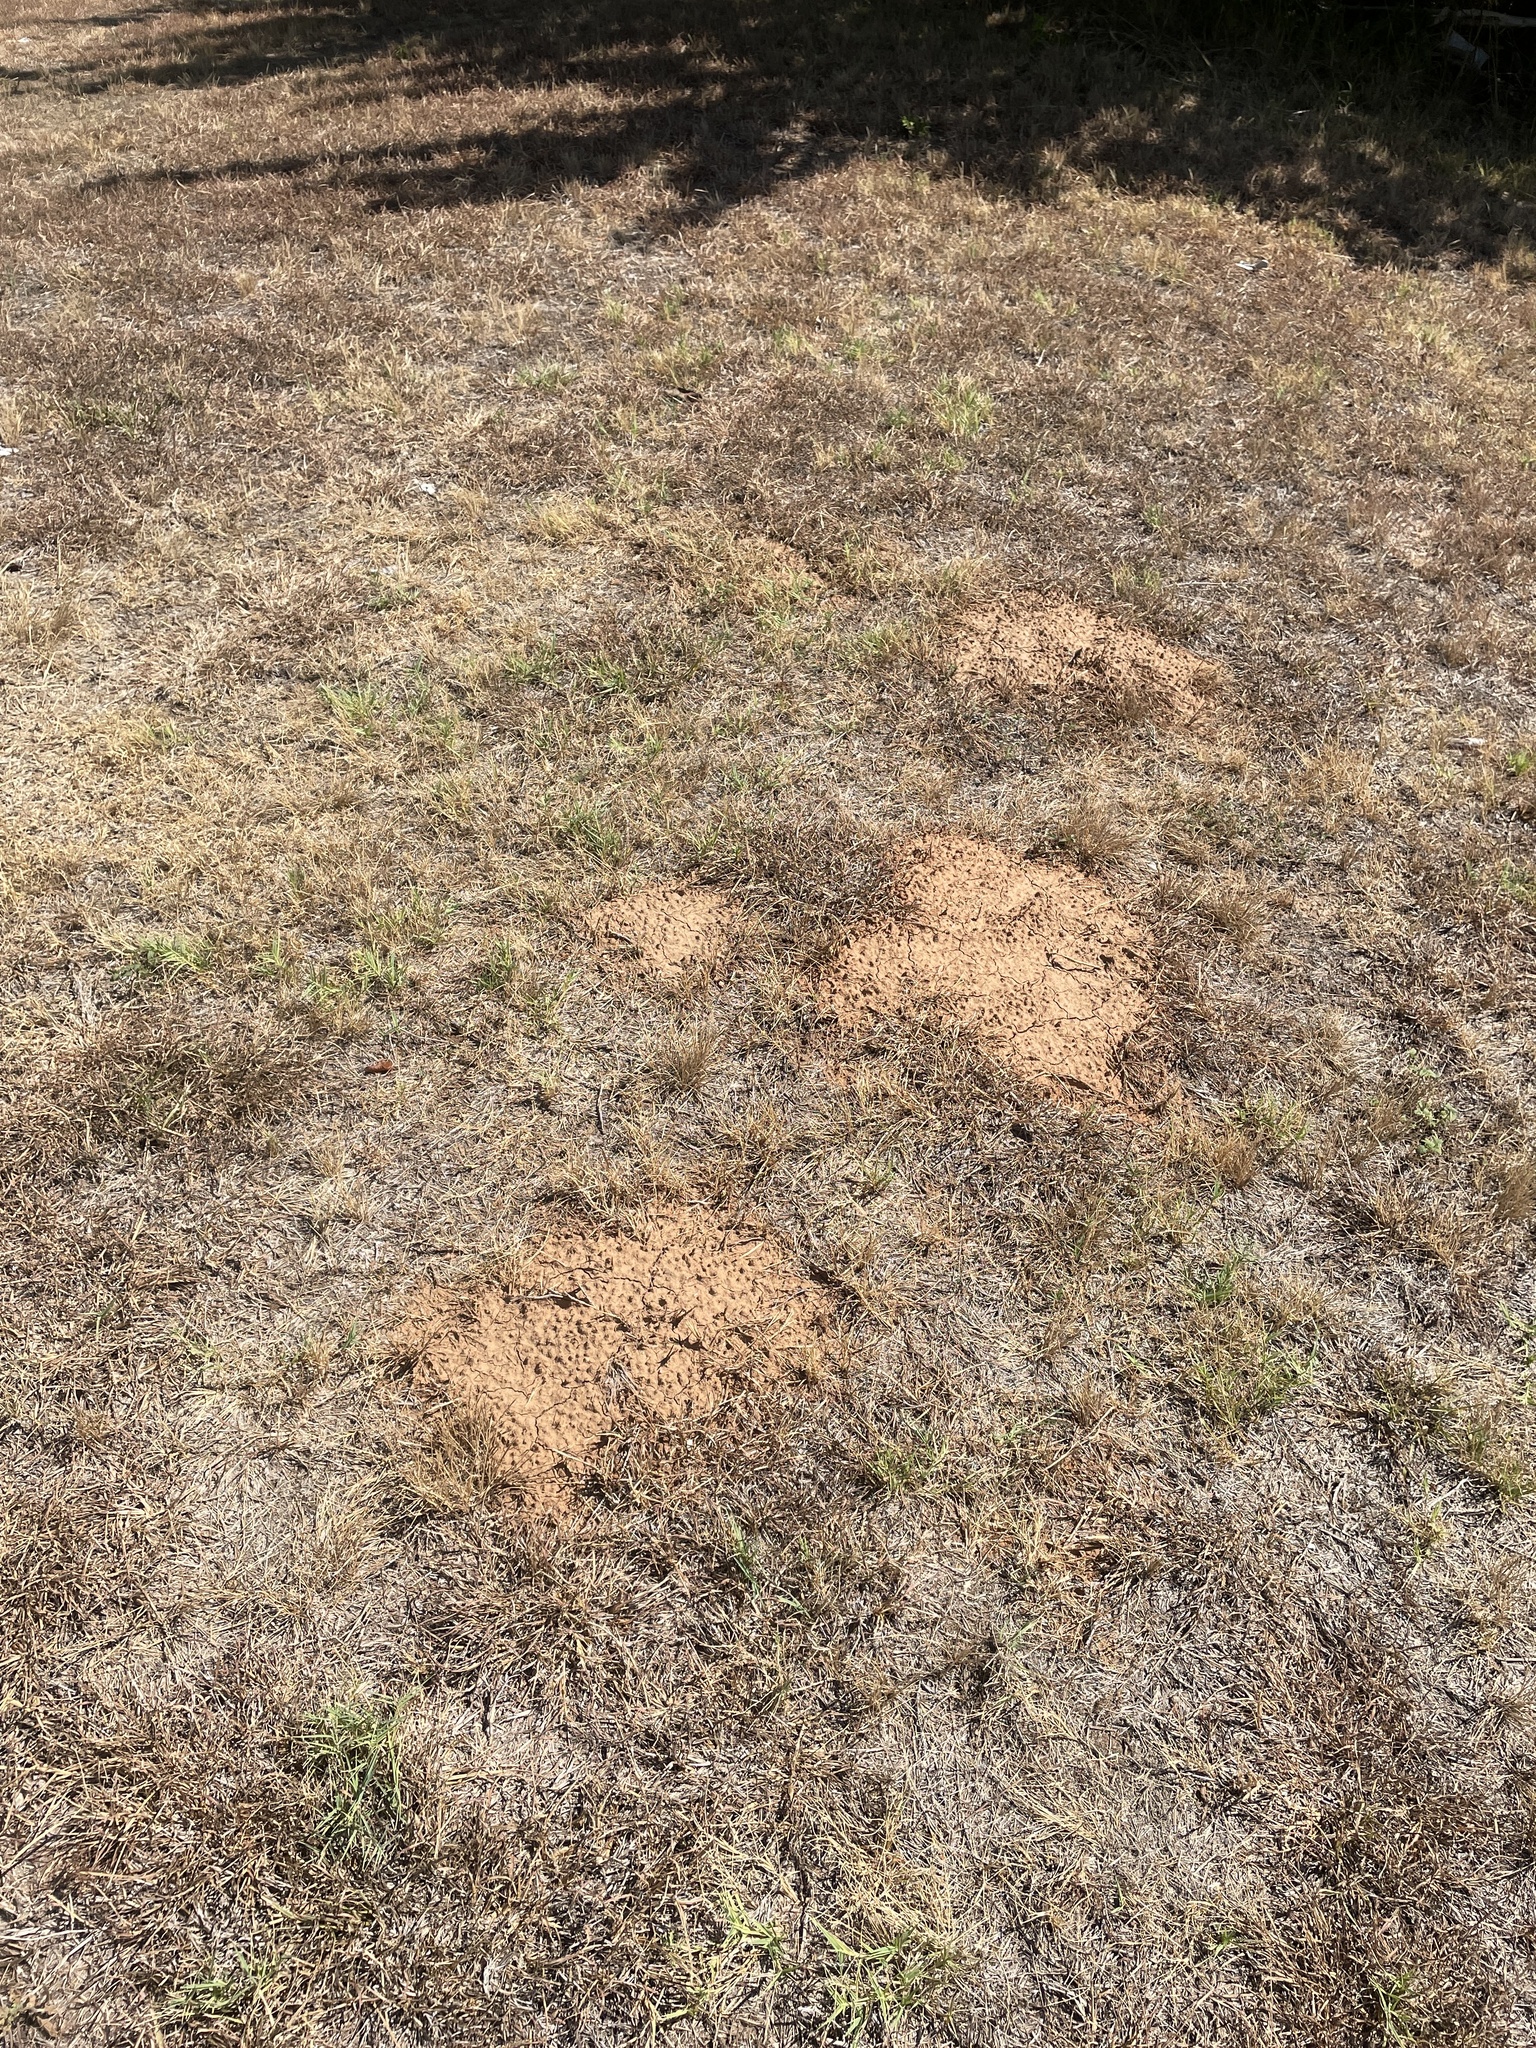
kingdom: Animalia
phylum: Chordata
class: Mammalia
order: Rodentia
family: Geomyidae
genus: Geomys
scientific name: Geomys bursarius
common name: Plains pocket gopher
